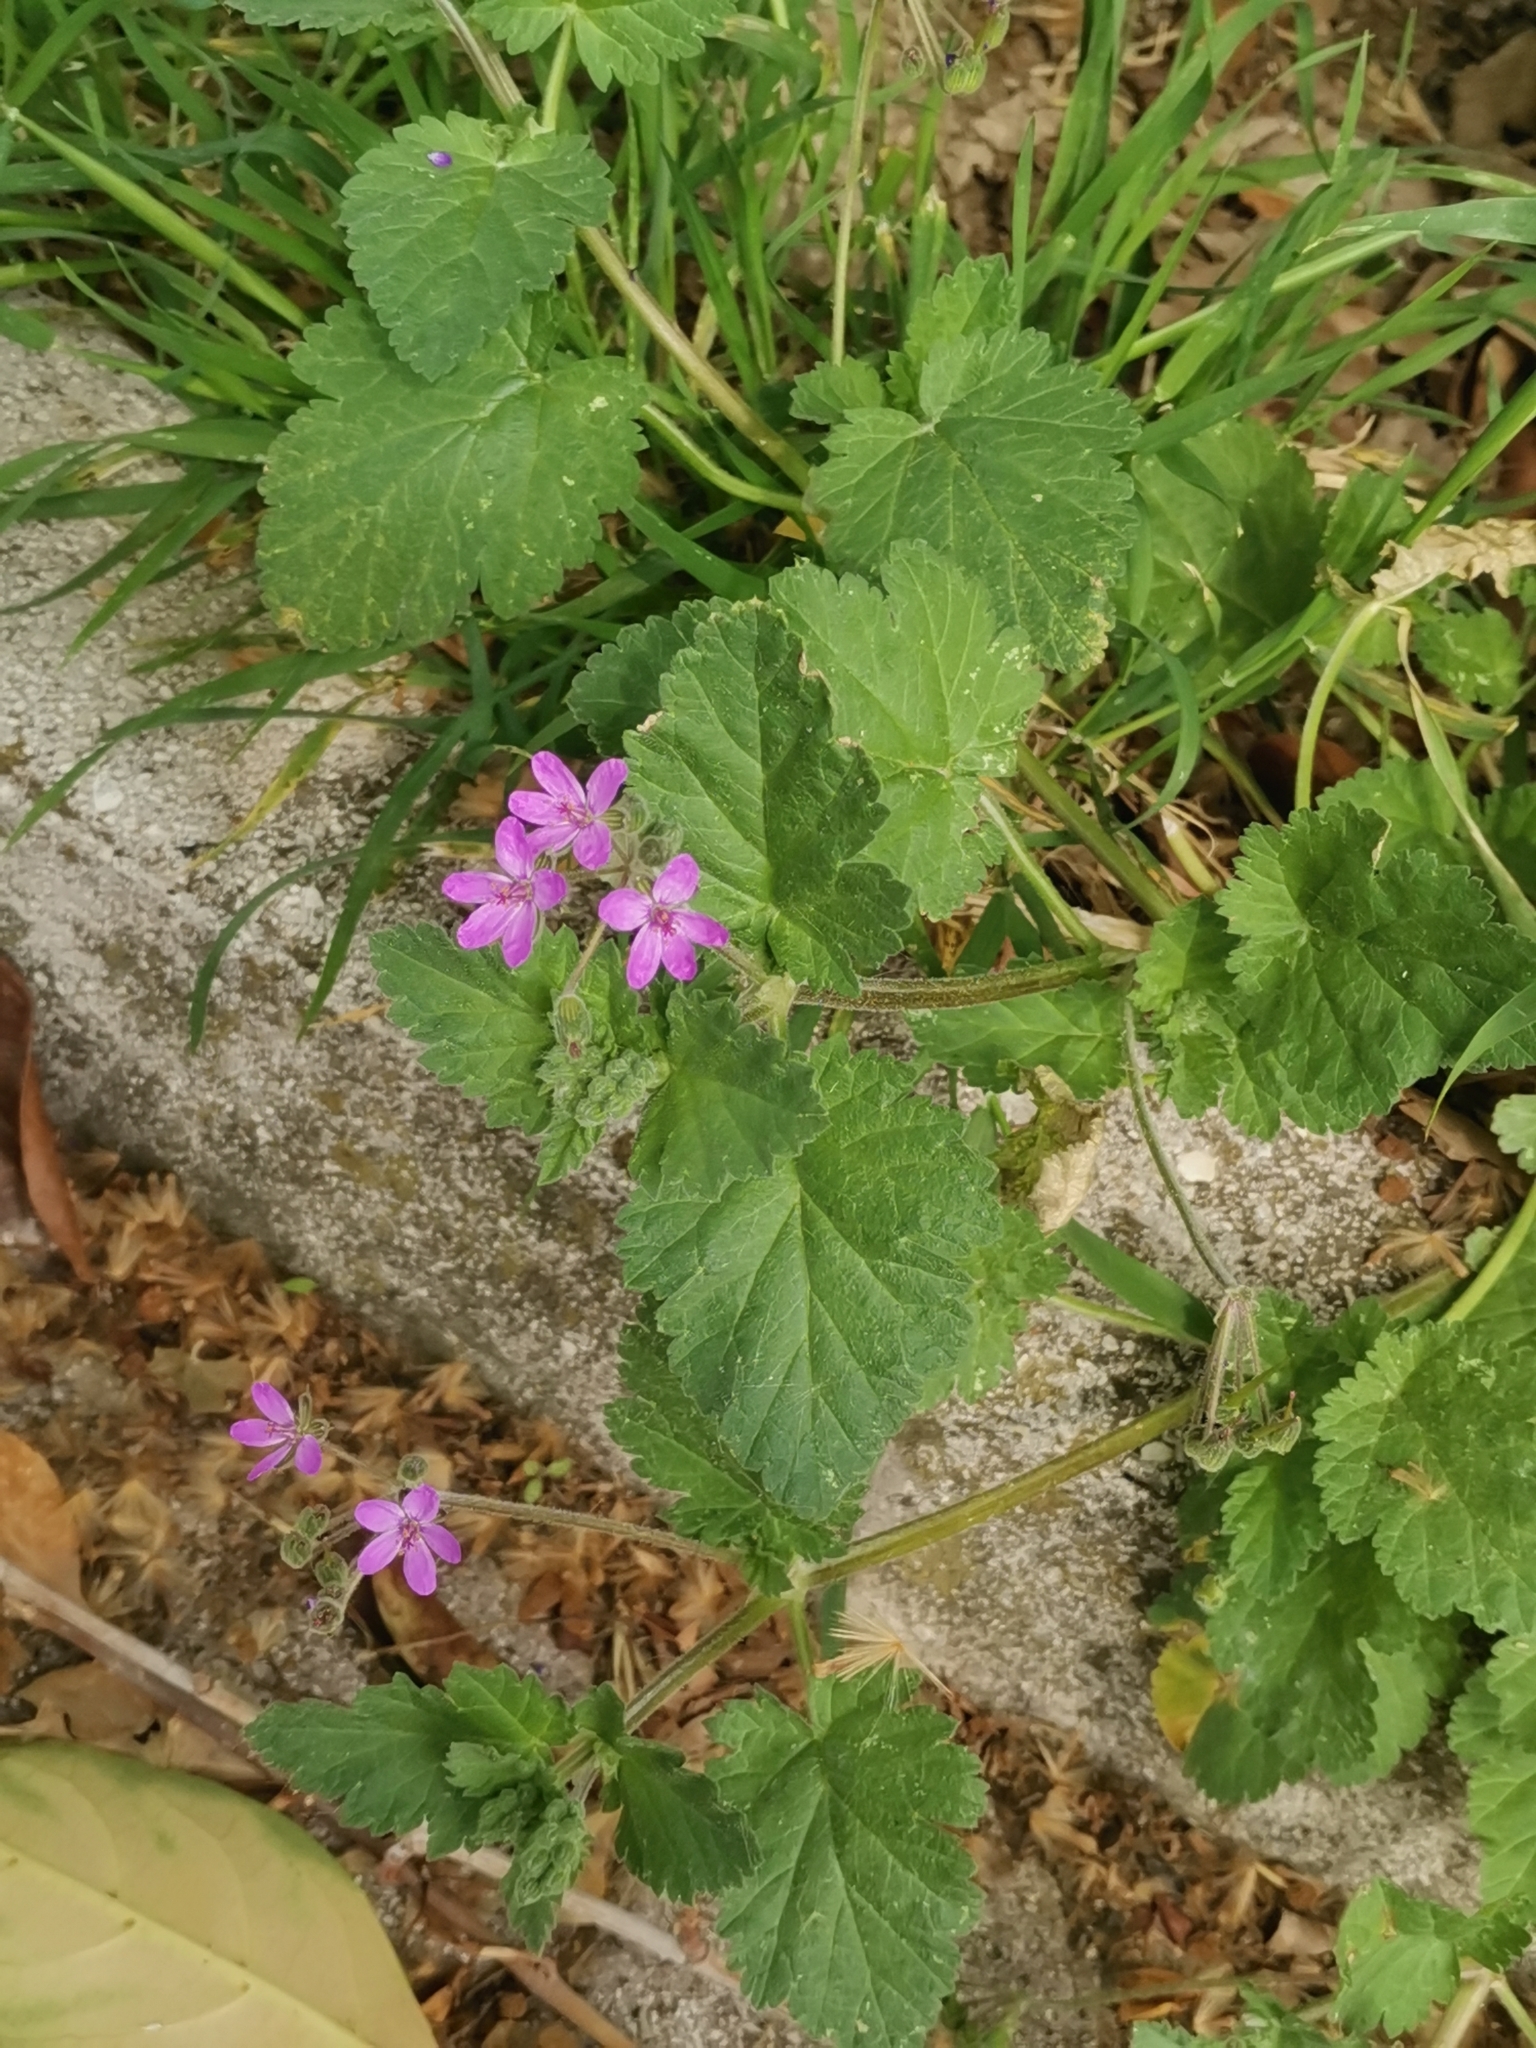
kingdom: Plantae
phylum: Tracheophyta
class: Magnoliopsida
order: Geraniales
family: Geraniaceae
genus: Erodium
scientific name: Erodium malacoides
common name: Soft stork's-bill
